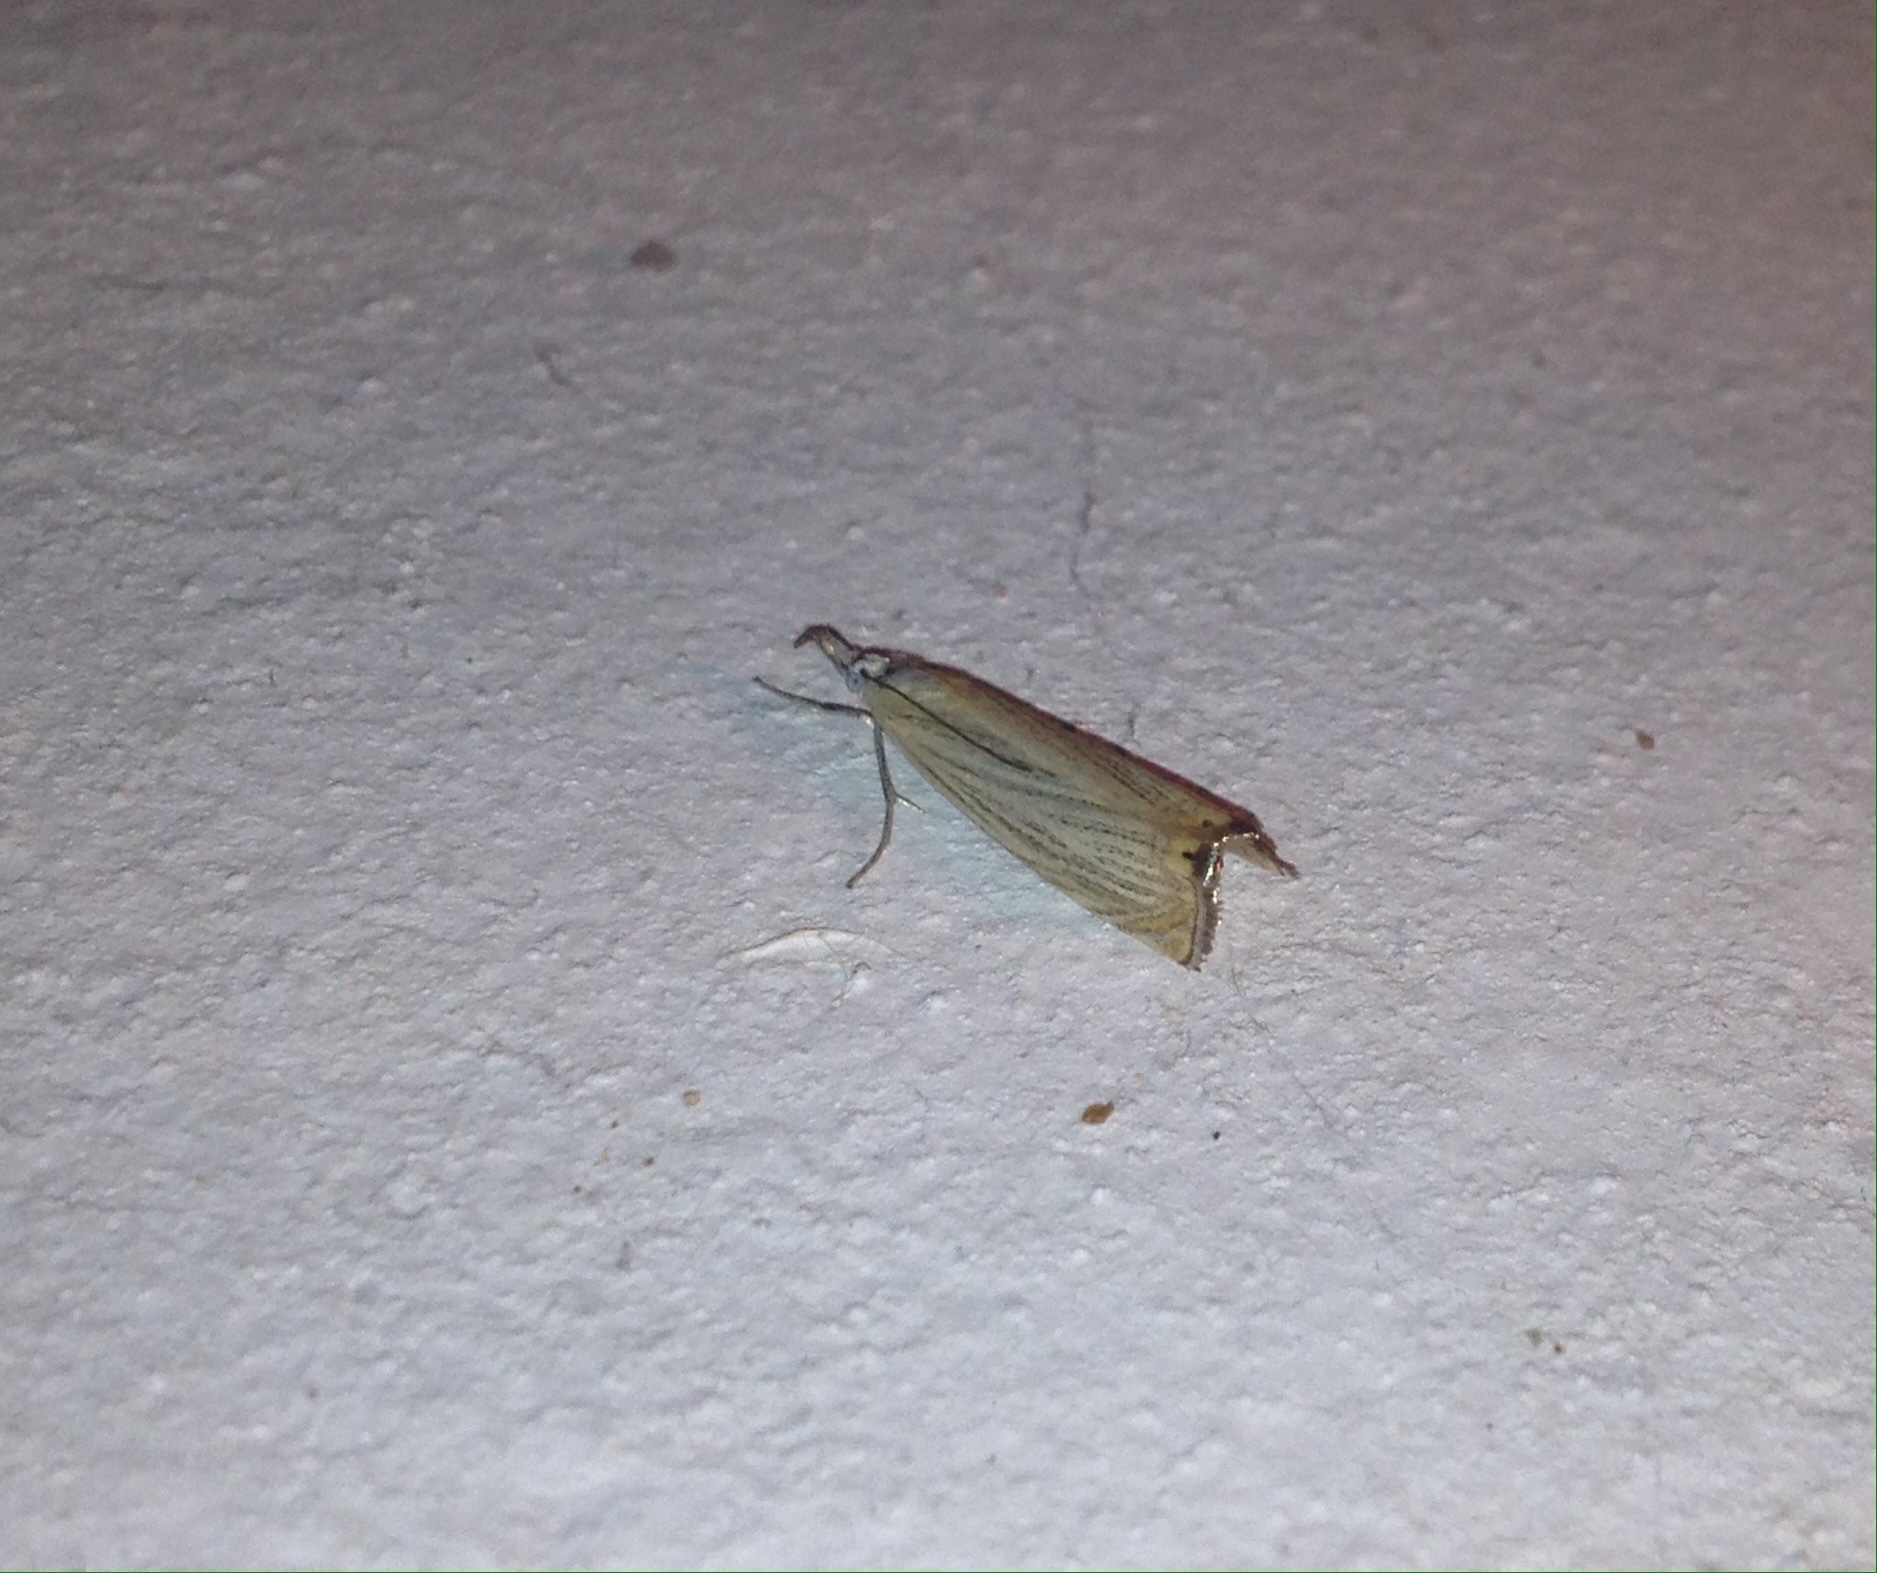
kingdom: Animalia
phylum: Arthropoda
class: Insecta
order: Lepidoptera
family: Crambidae
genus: Chrysoteuchia
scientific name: Chrysoteuchia culmella
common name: Garden grass-veneer
